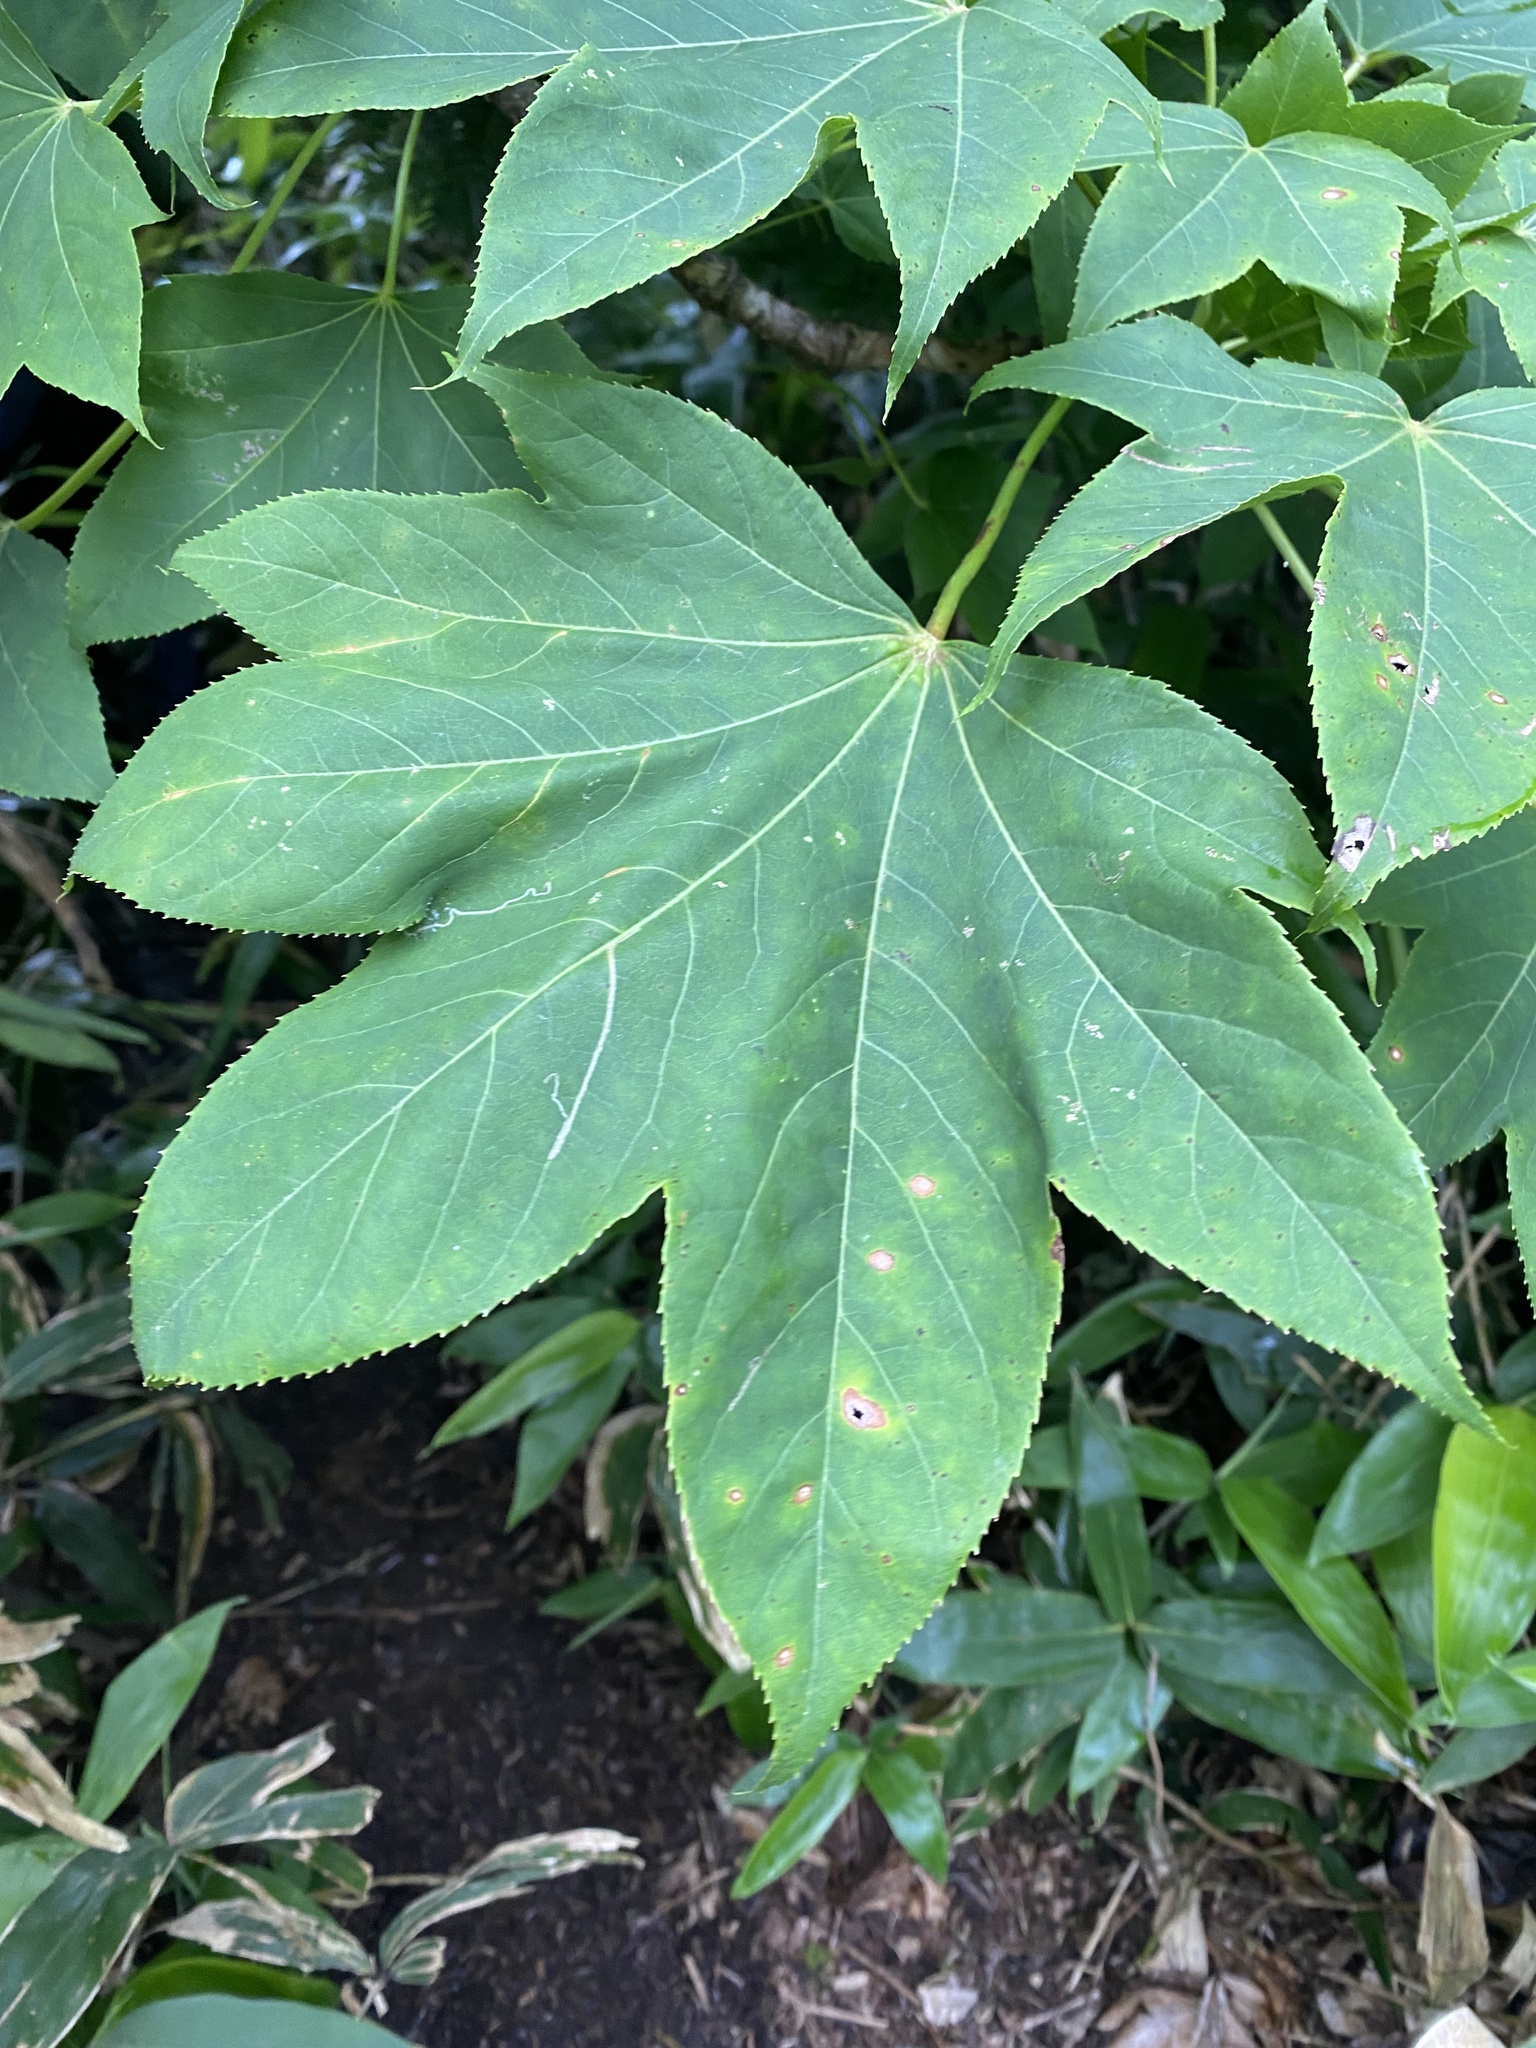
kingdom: Plantae
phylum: Tracheophyta
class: Magnoliopsida
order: Apiales
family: Araliaceae
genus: Kalopanax
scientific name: Kalopanax septemlobus
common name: Castor aralia
